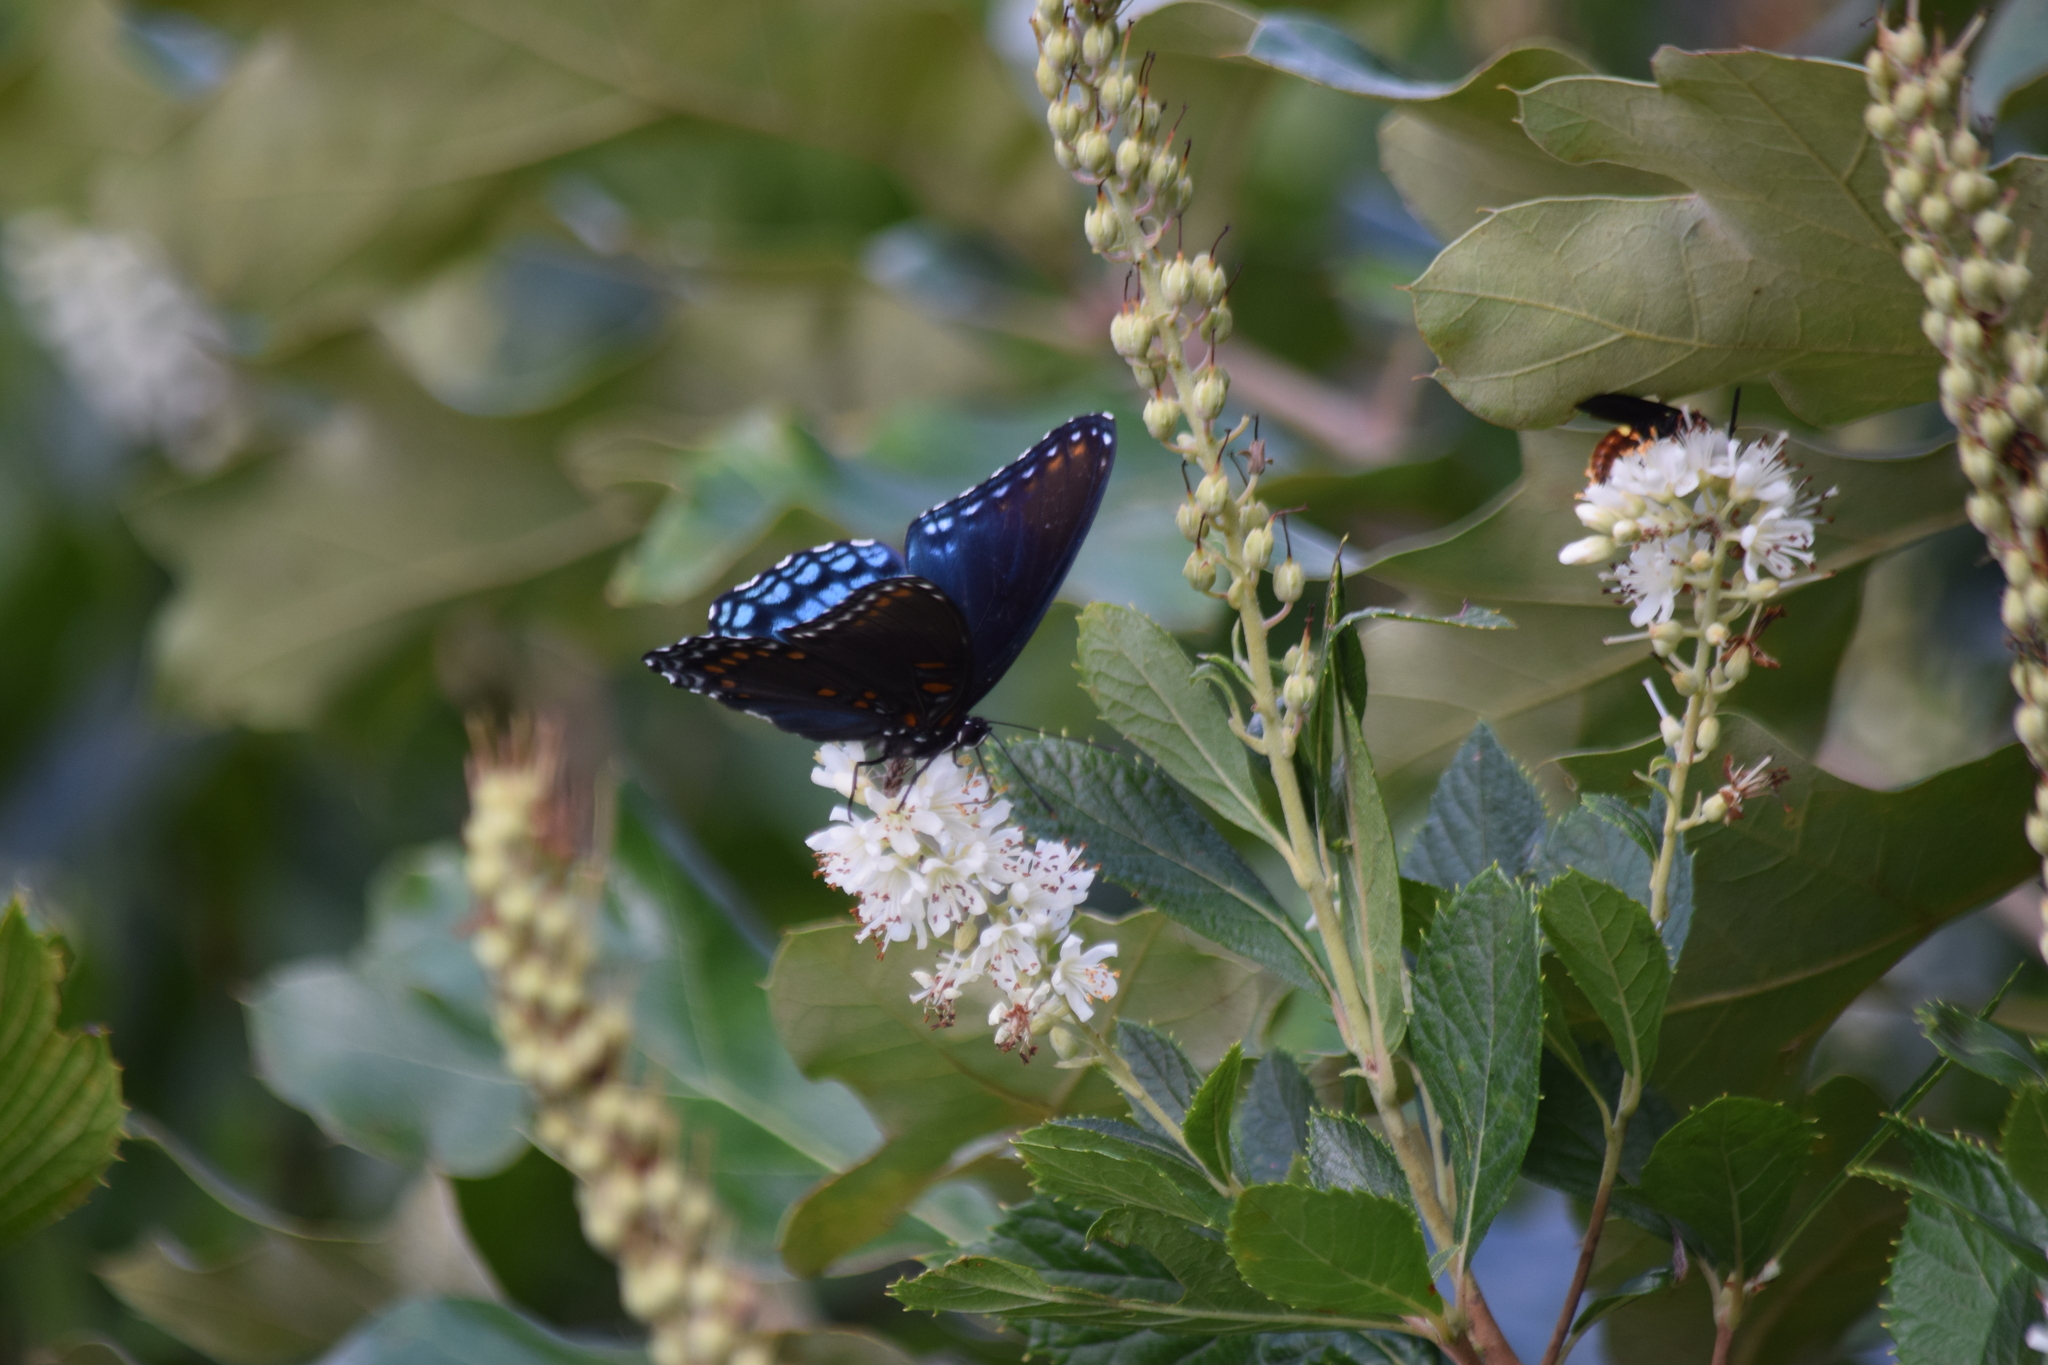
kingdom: Animalia
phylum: Arthropoda
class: Insecta
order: Lepidoptera
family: Nymphalidae
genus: Limenitis
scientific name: Limenitis arthemis
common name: Red-spotted admiral
